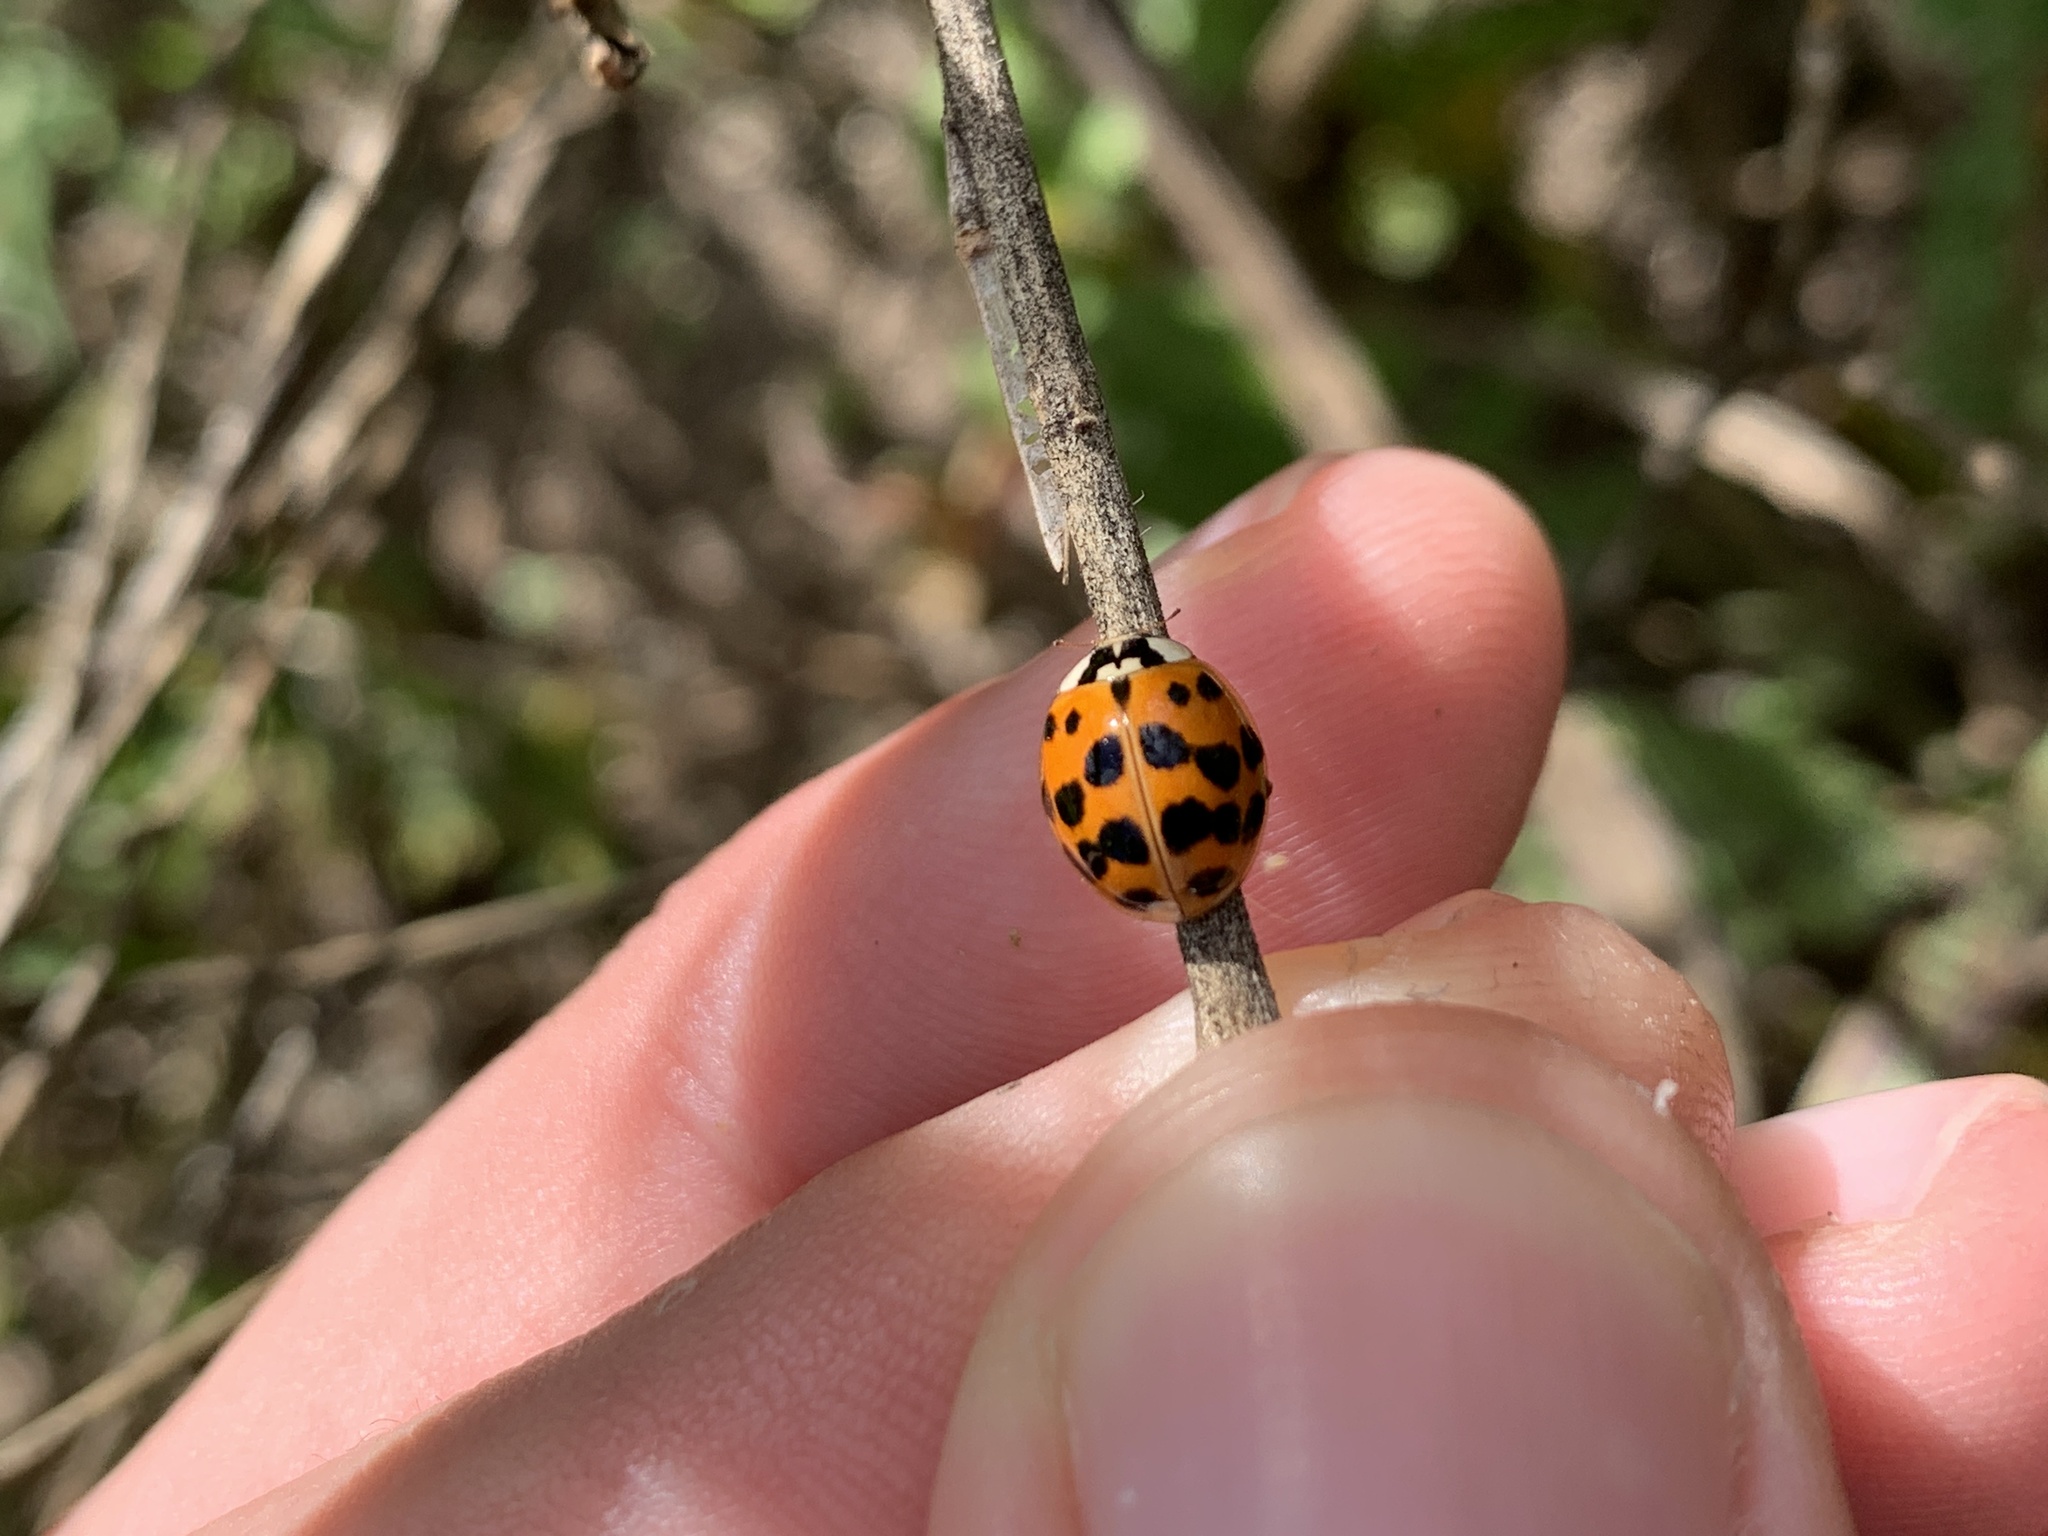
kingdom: Animalia
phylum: Arthropoda
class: Insecta
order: Coleoptera
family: Coccinellidae
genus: Harmonia
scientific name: Harmonia axyridis
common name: Harlequin ladybird
